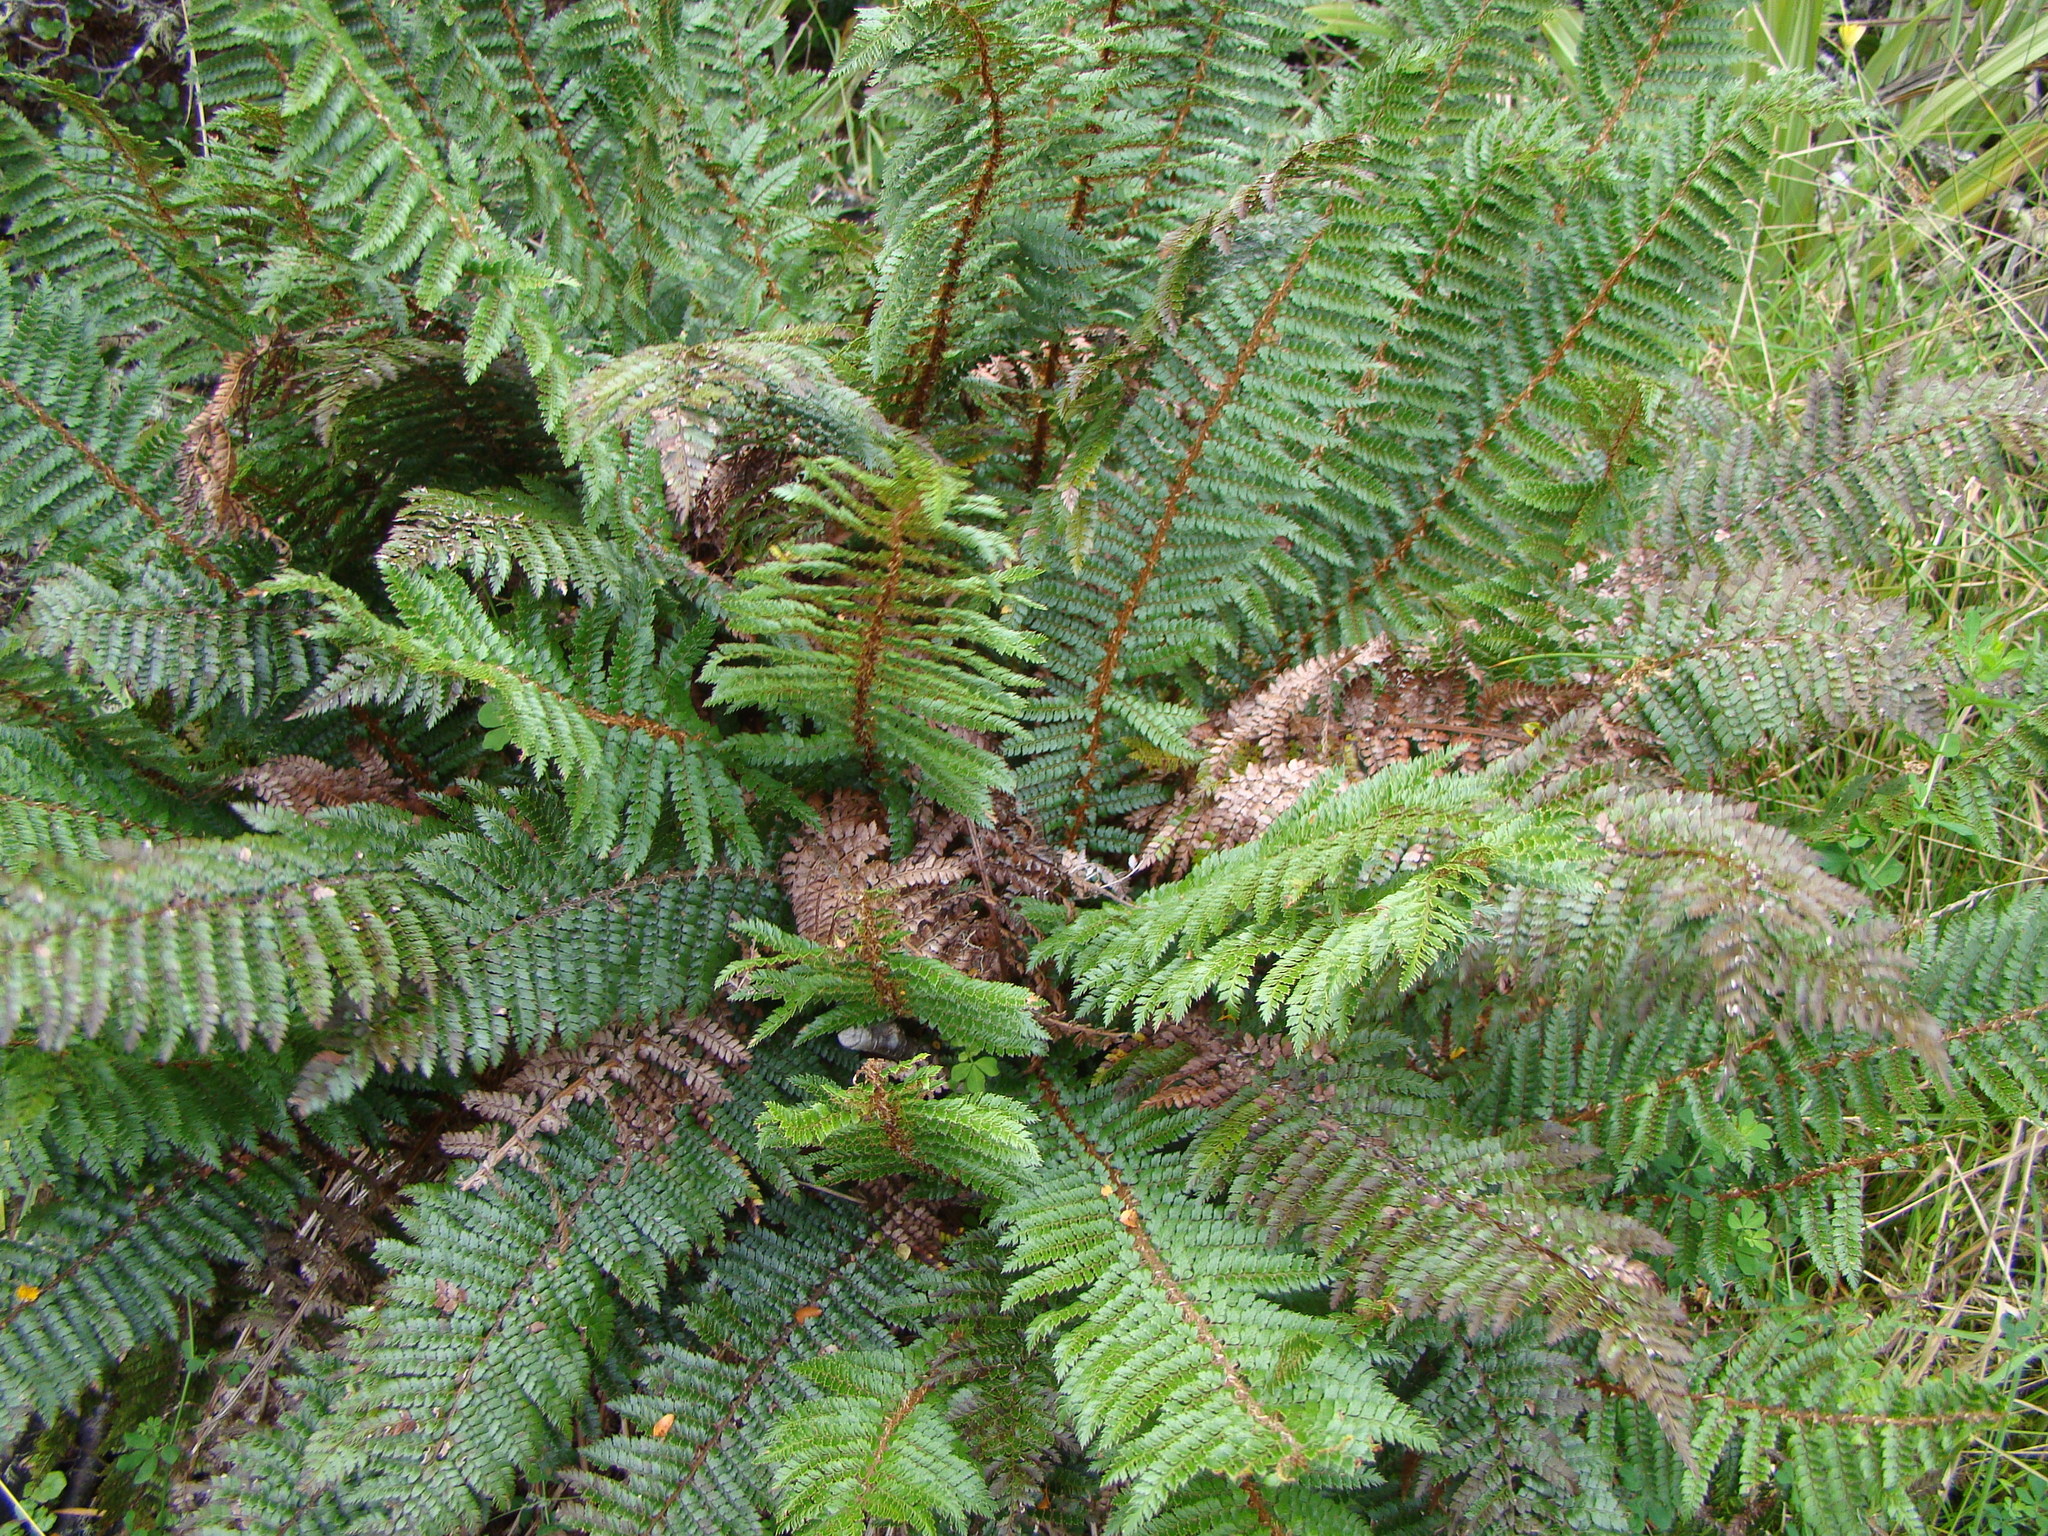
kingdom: Plantae
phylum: Tracheophyta
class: Polypodiopsida
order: Polypodiales
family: Dryopteridaceae
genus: Polystichum
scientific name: Polystichum vestitum
